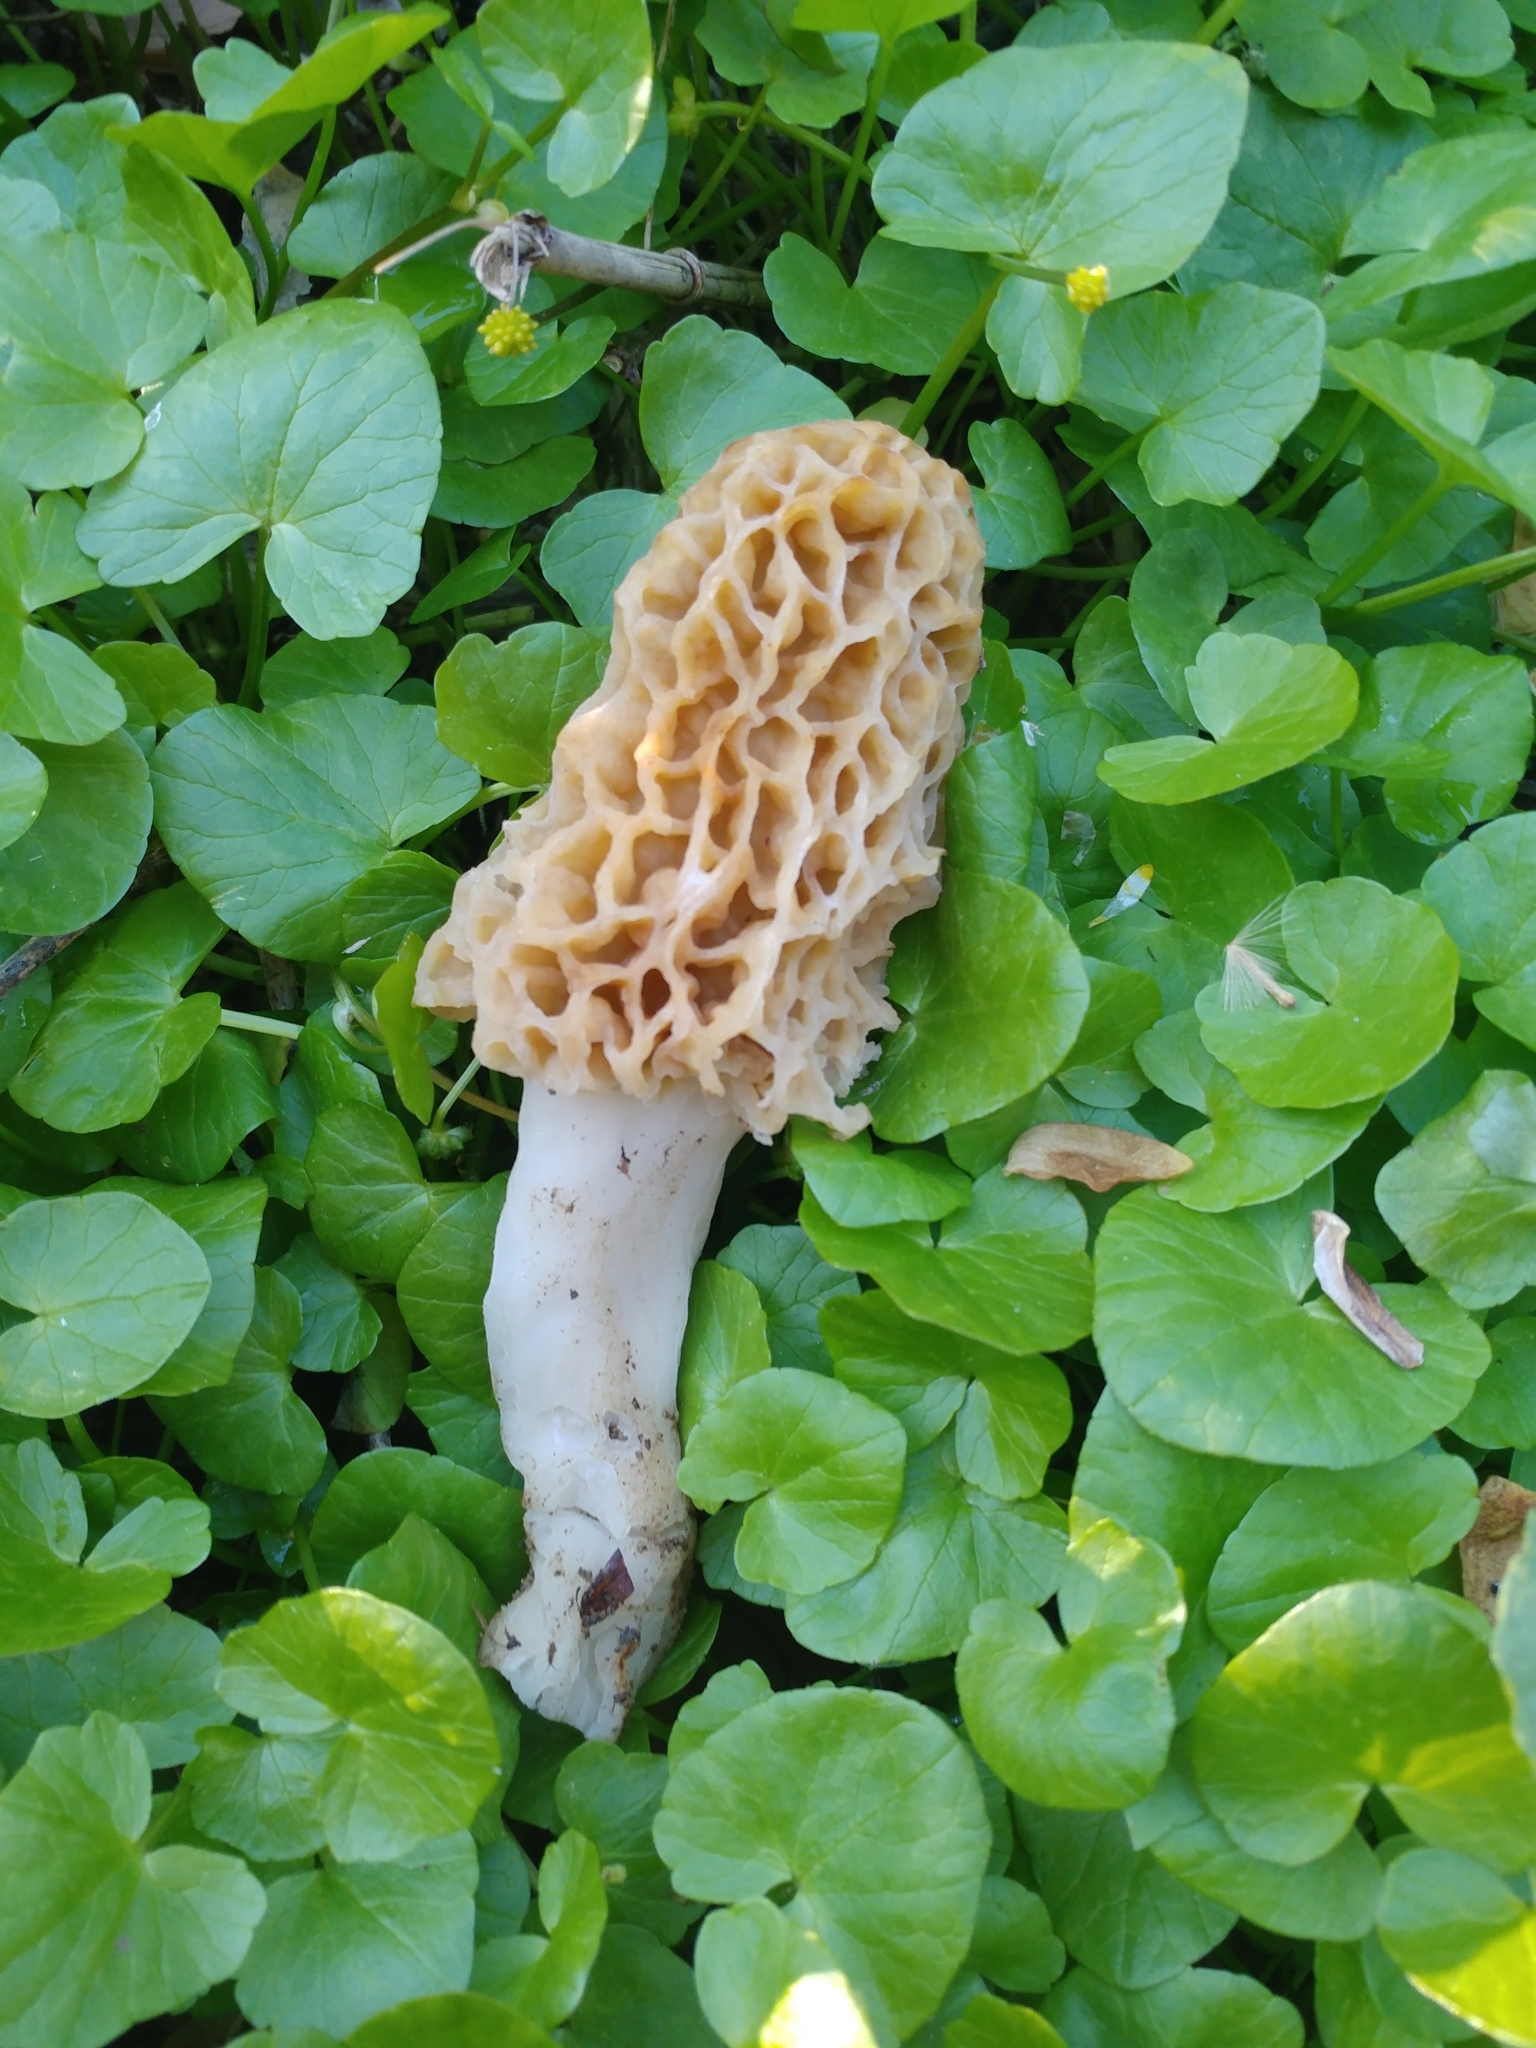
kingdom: Fungi
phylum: Ascomycota
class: Pezizomycetes
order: Pezizales
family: Morchellaceae
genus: Morchella
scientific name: Morchella americana
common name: White morel
